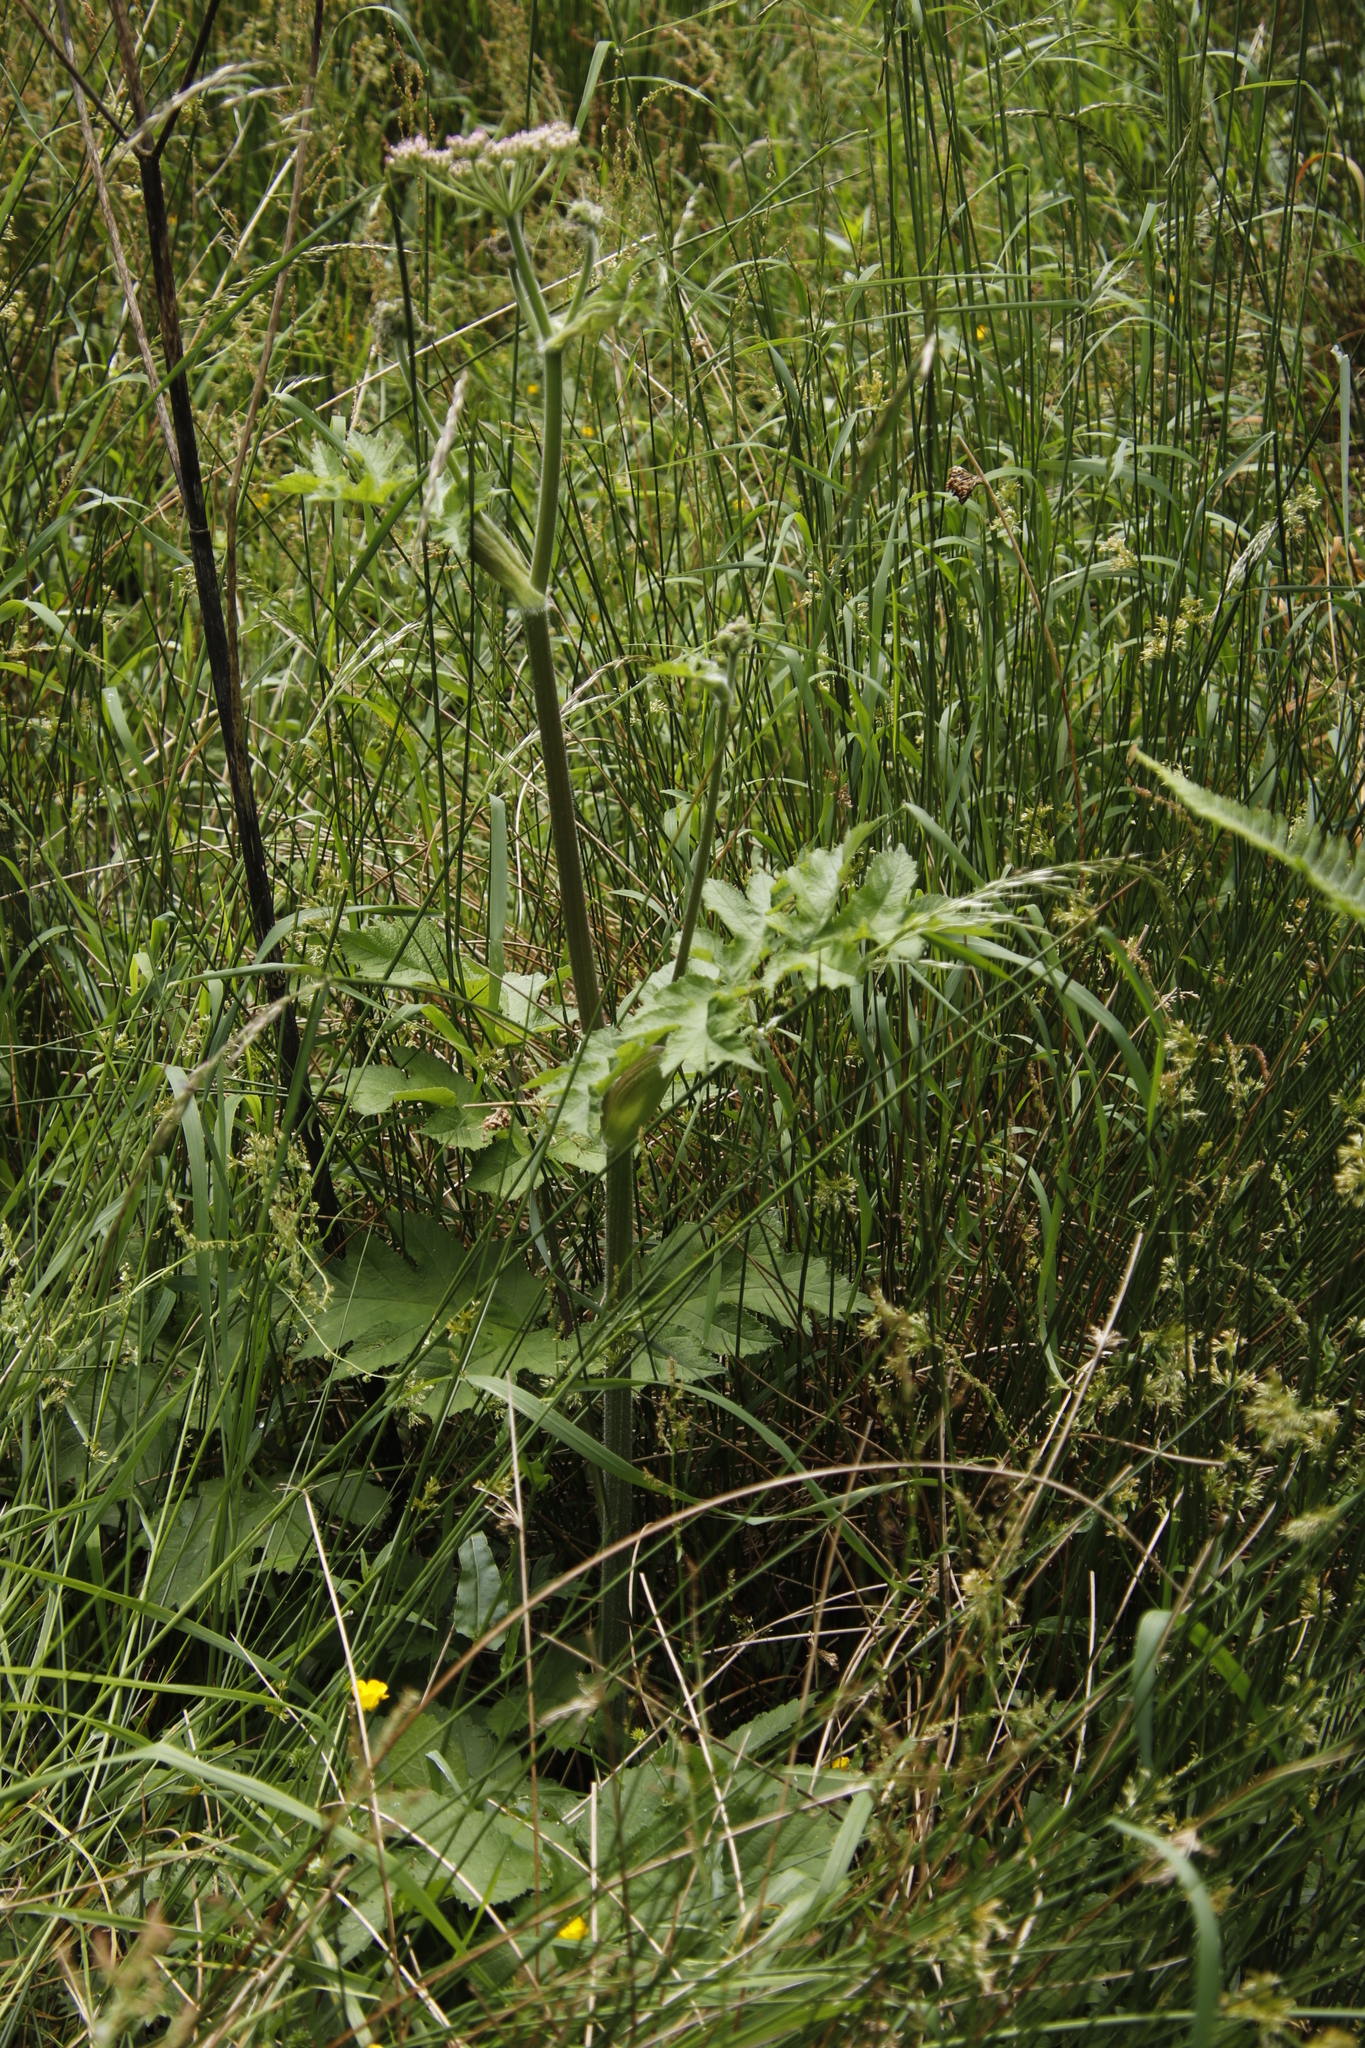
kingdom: Plantae
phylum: Tracheophyta
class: Magnoliopsida
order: Apiales
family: Apiaceae
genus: Heracleum
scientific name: Heracleum sphondylium
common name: Hogweed
